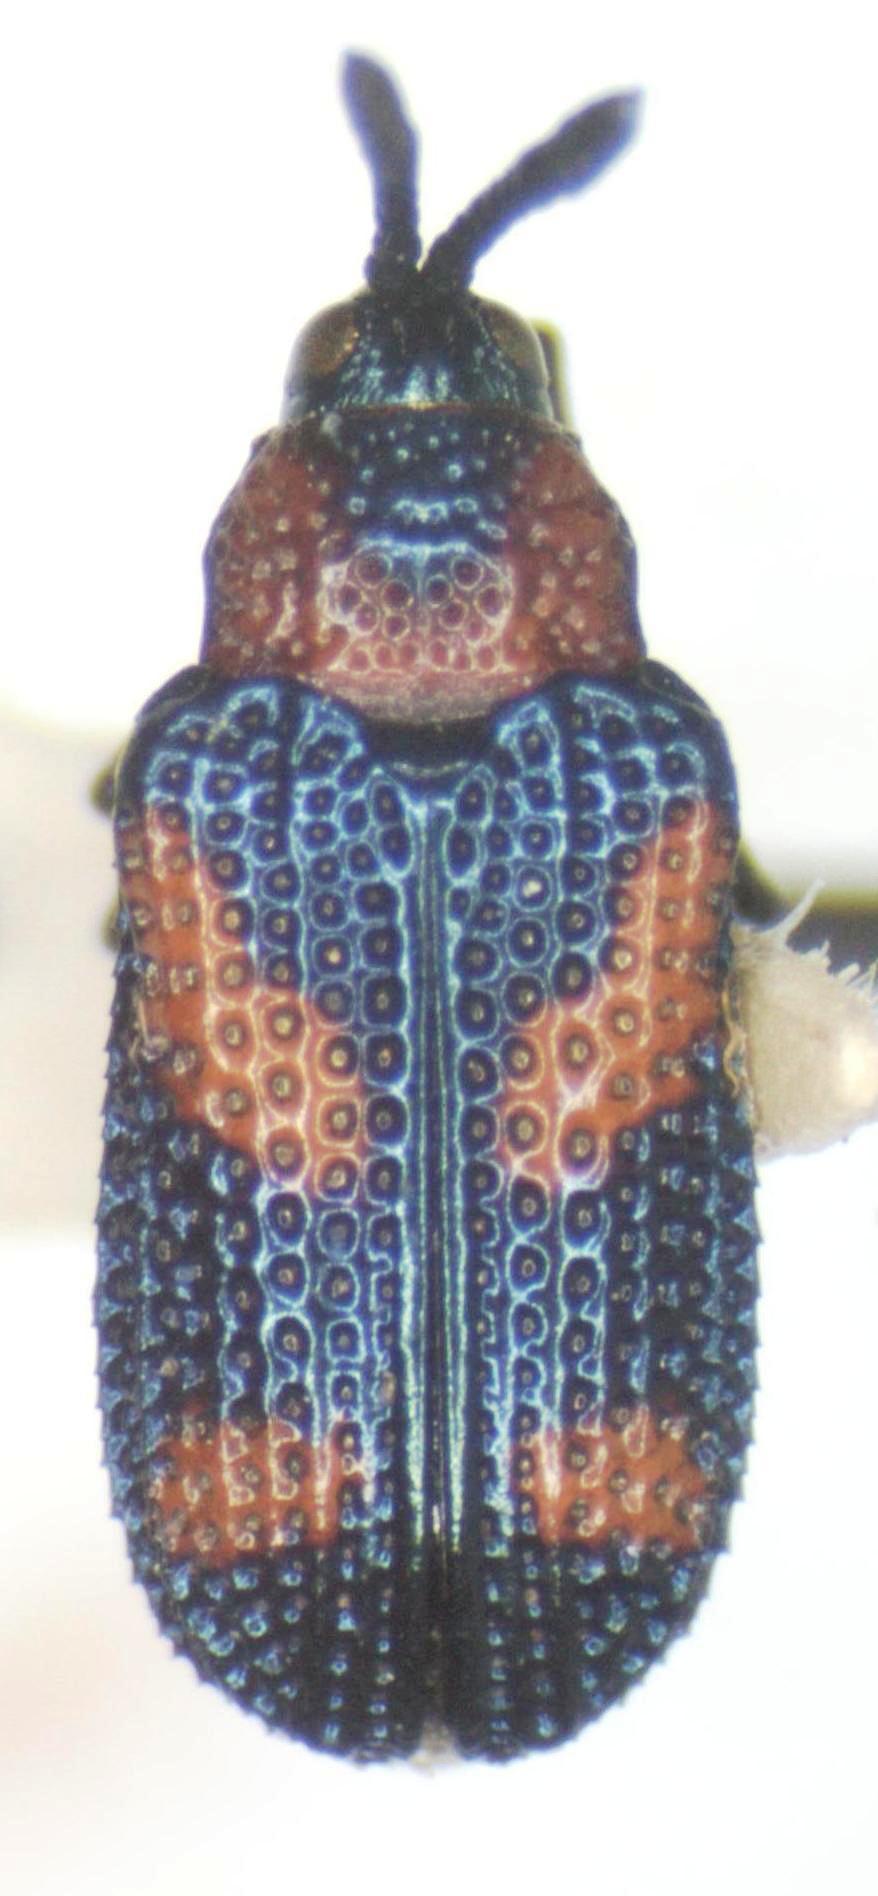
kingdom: Animalia
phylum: Arthropoda
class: Insecta
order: Coleoptera
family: Chrysomelidae
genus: Microrhopala
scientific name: Microrhopala perforata
